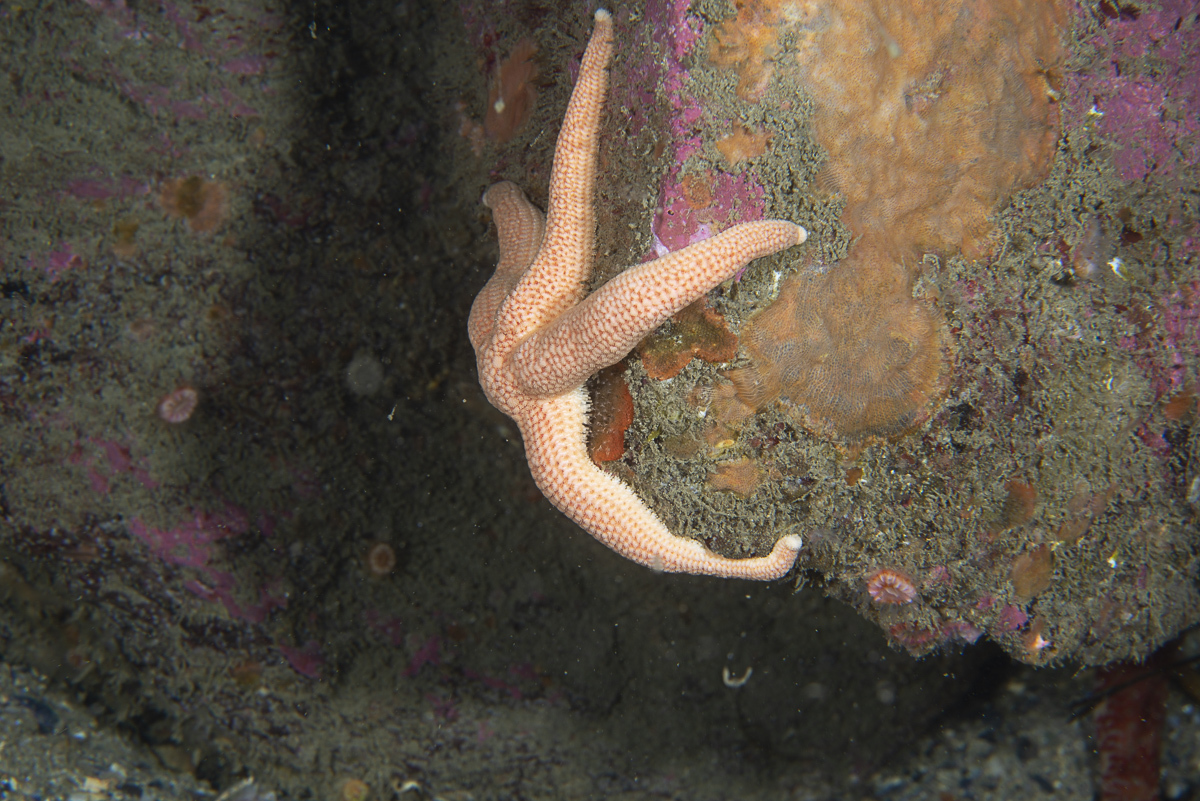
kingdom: Animalia
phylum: Echinodermata
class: Asteroidea
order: Forcipulatida
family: Stichasteridae
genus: Stichastrella
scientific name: Stichastrella rosea
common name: Rosy starfish
